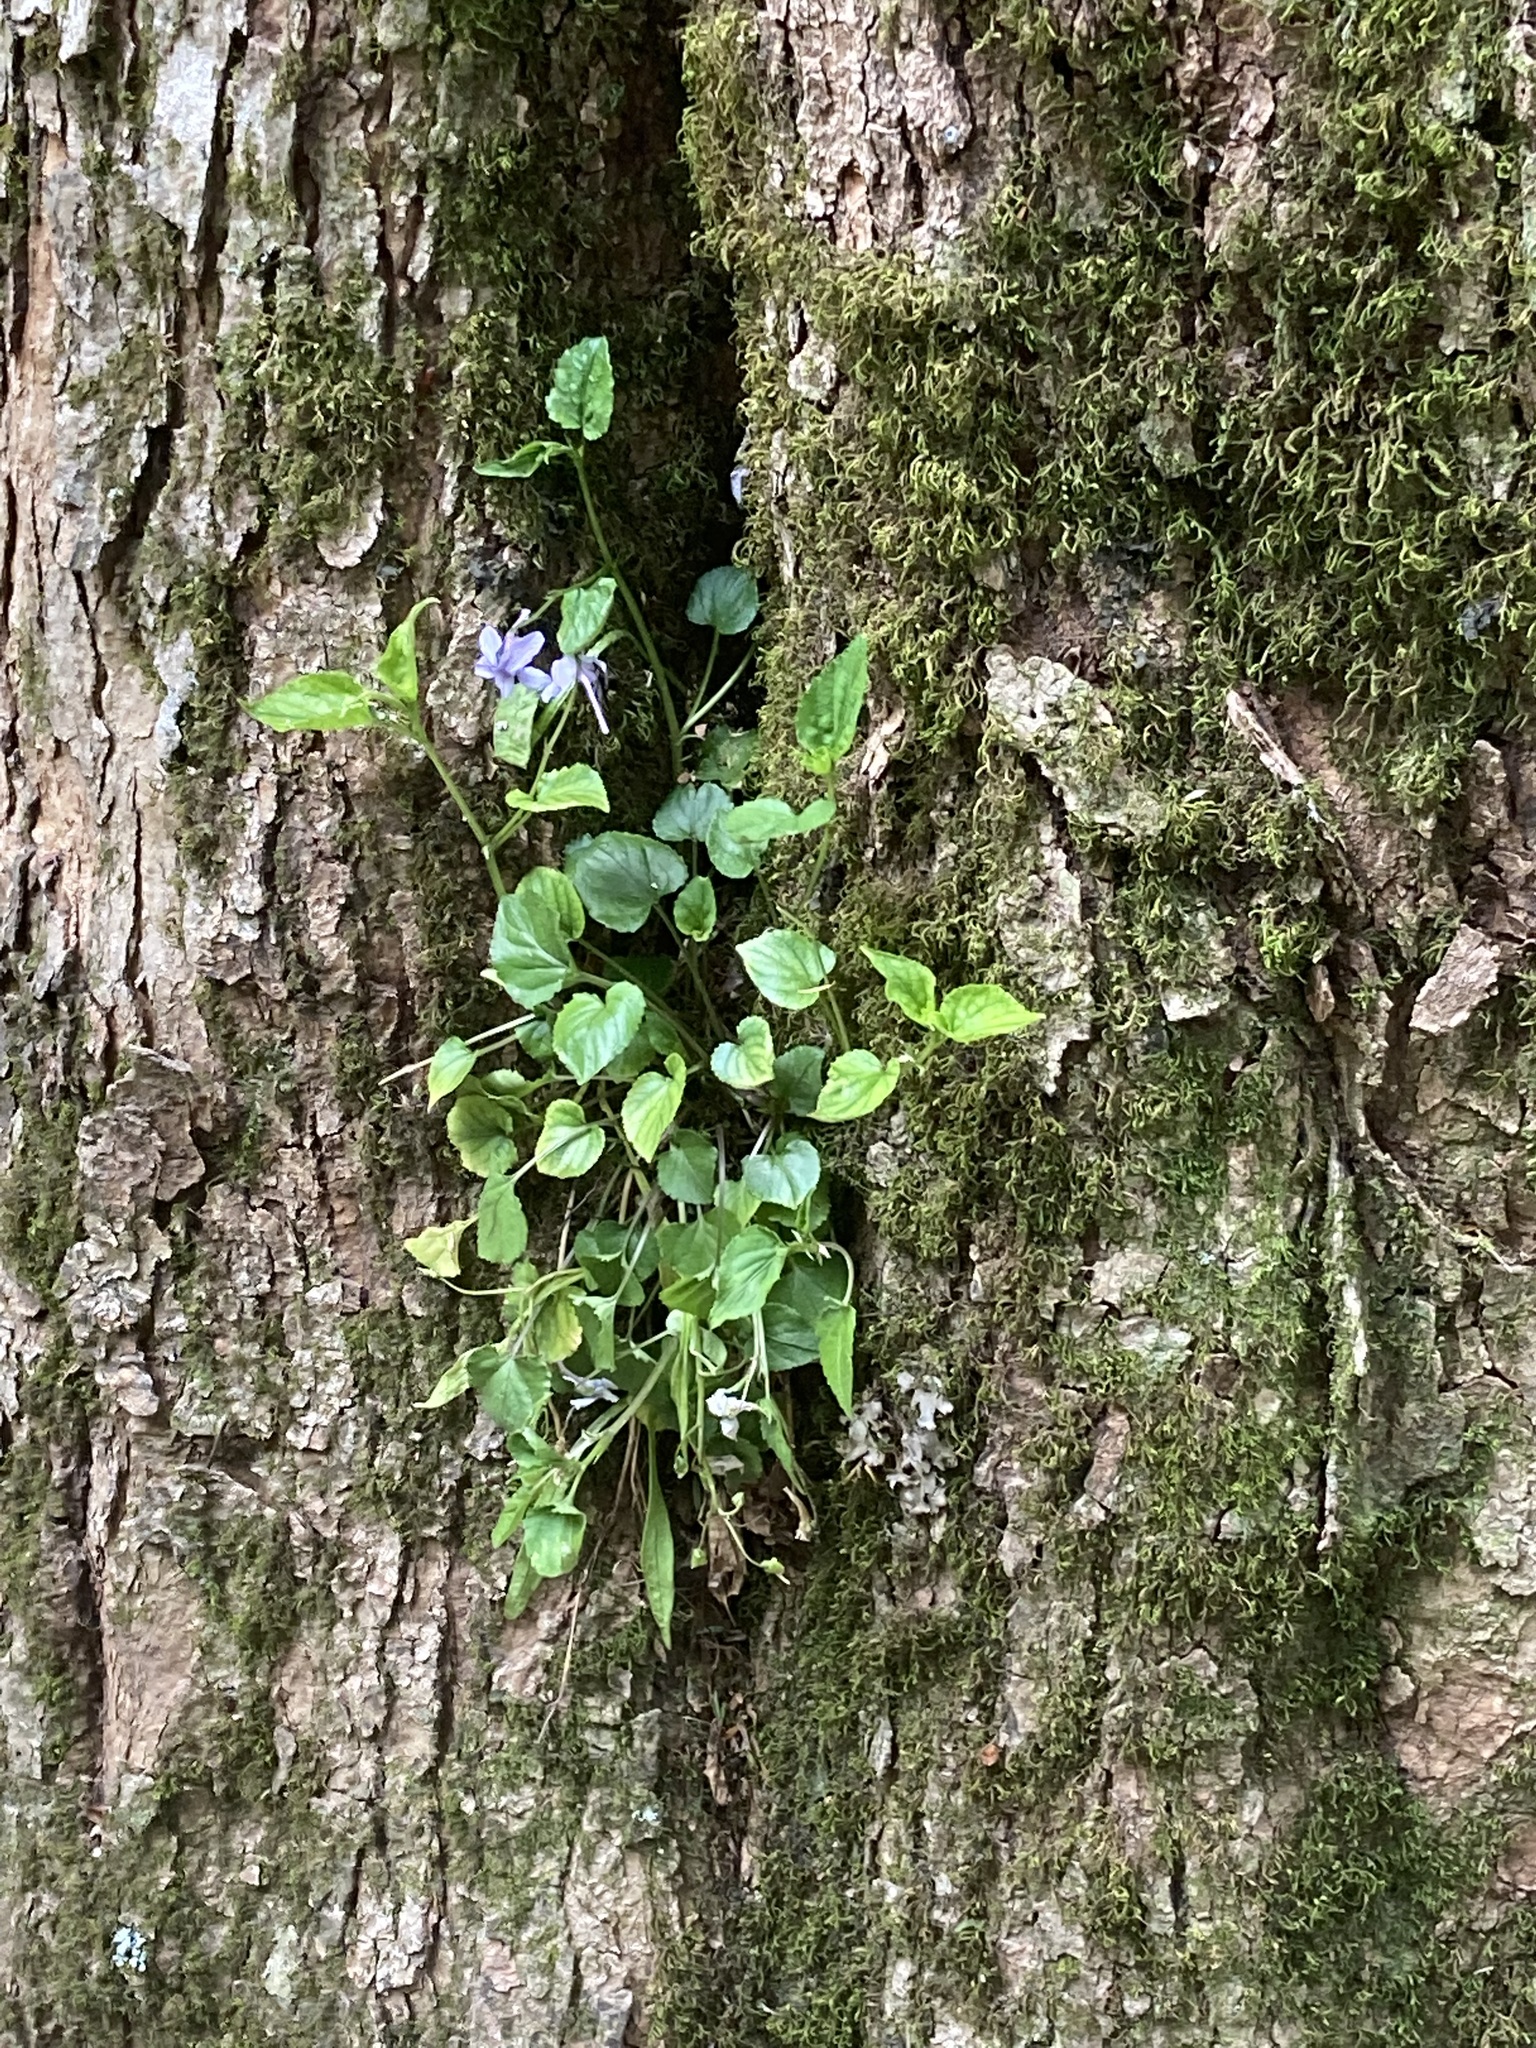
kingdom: Plantae
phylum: Tracheophyta
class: Magnoliopsida
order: Malpighiales
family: Violaceae
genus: Viola
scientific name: Viola rostrata
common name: Long-spur violet
